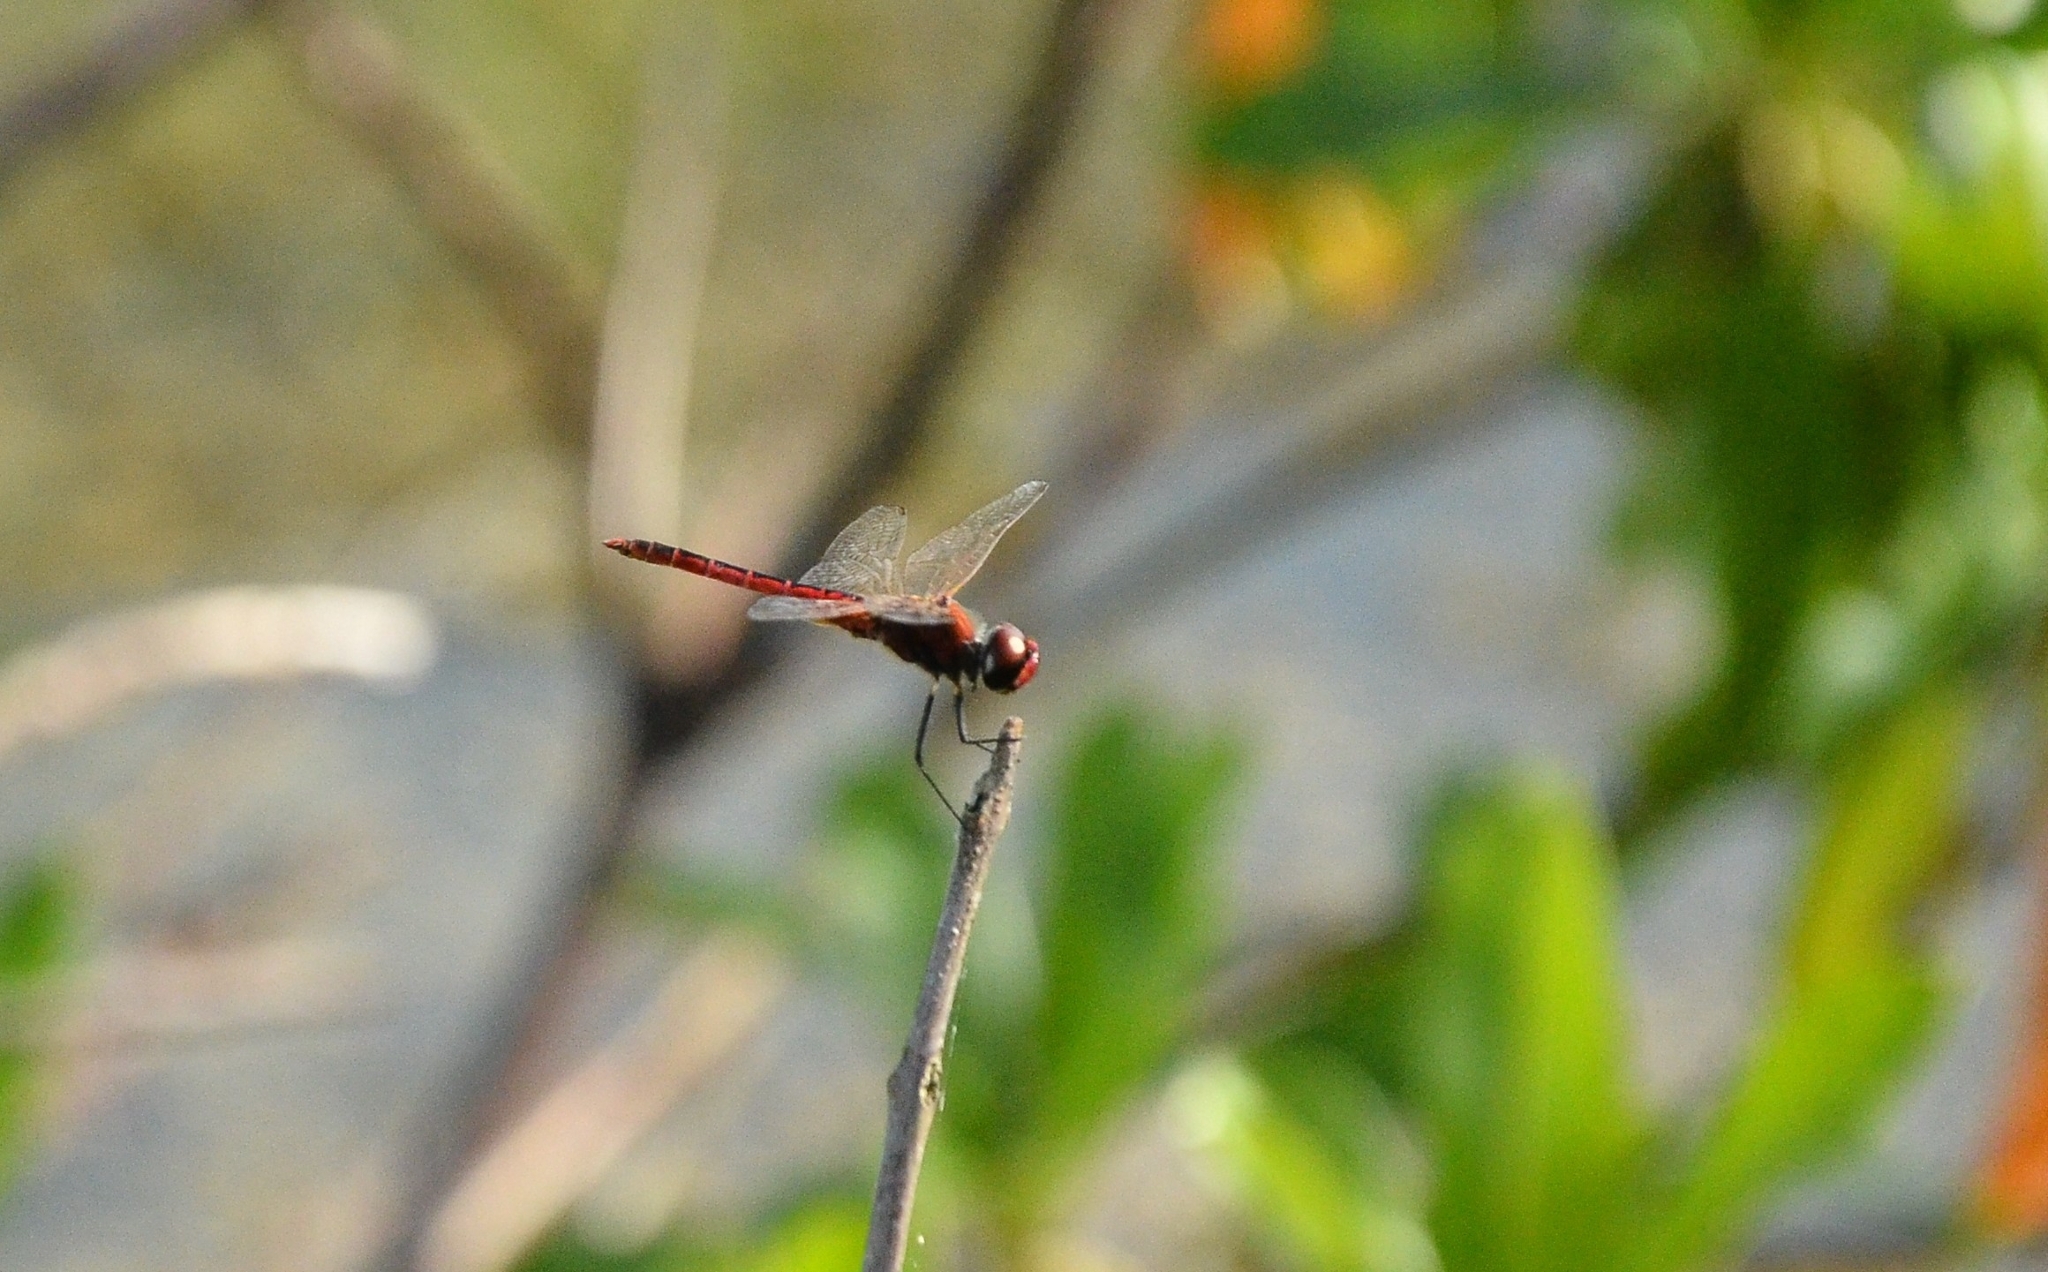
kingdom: Animalia
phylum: Arthropoda
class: Insecta
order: Odonata
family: Libellulidae
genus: Macrodiplax
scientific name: Macrodiplax cora
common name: Coastal glider
